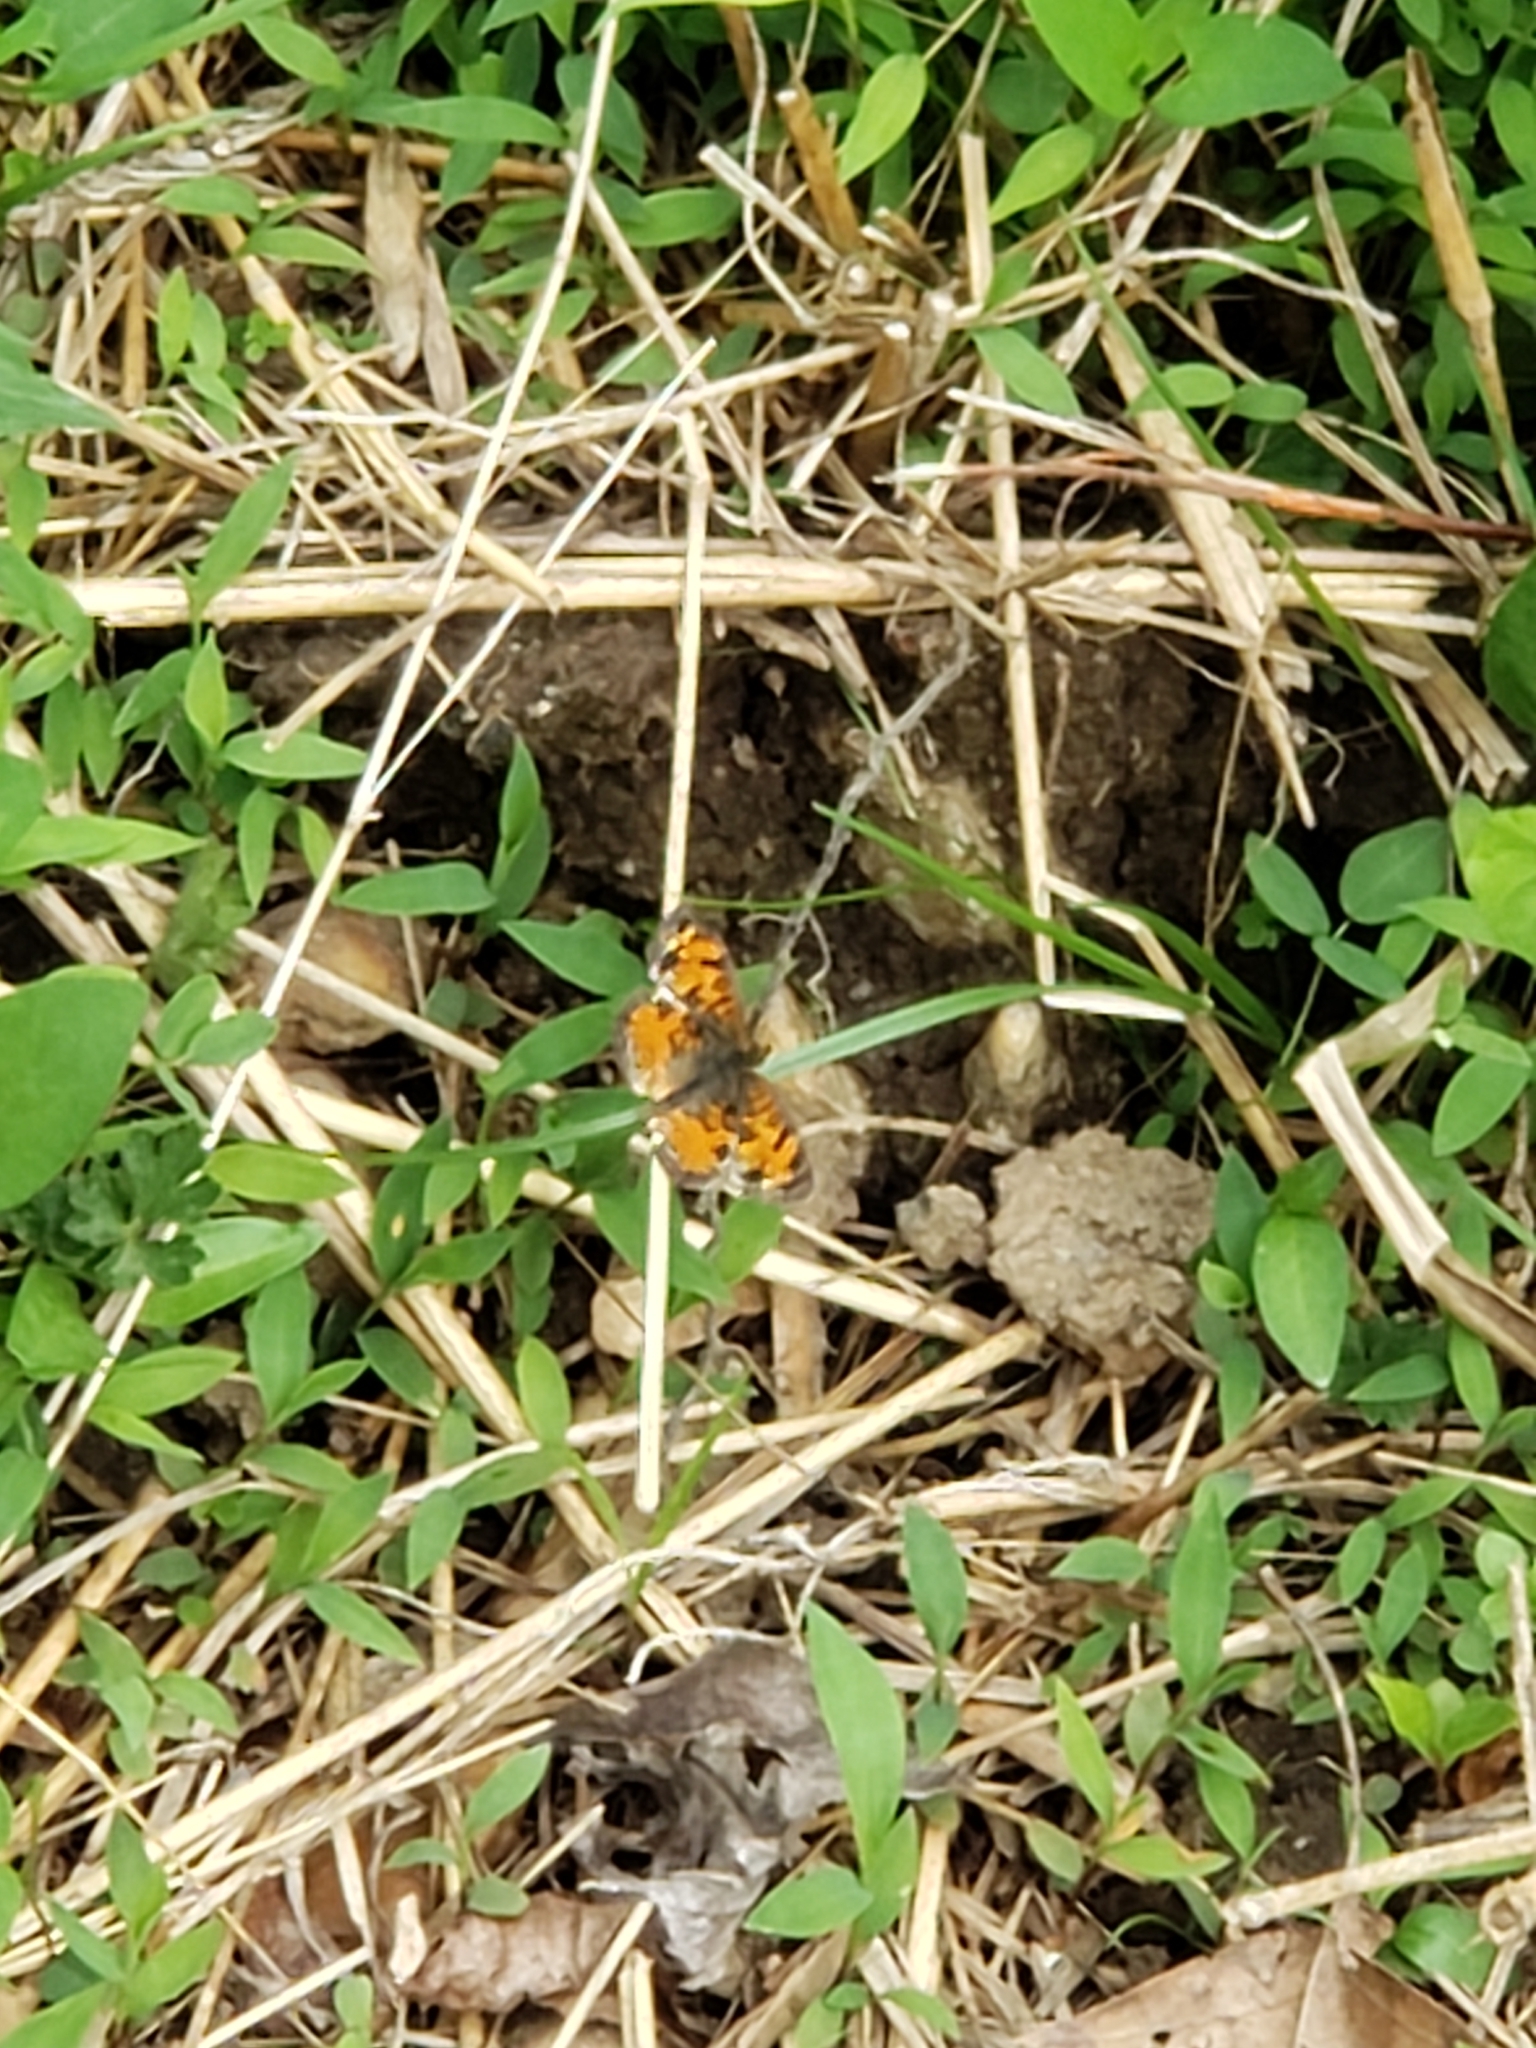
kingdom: Animalia
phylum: Arthropoda
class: Insecta
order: Lepidoptera
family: Nymphalidae
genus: Phyciodes
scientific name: Phyciodes tharos
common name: Pearl crescent
